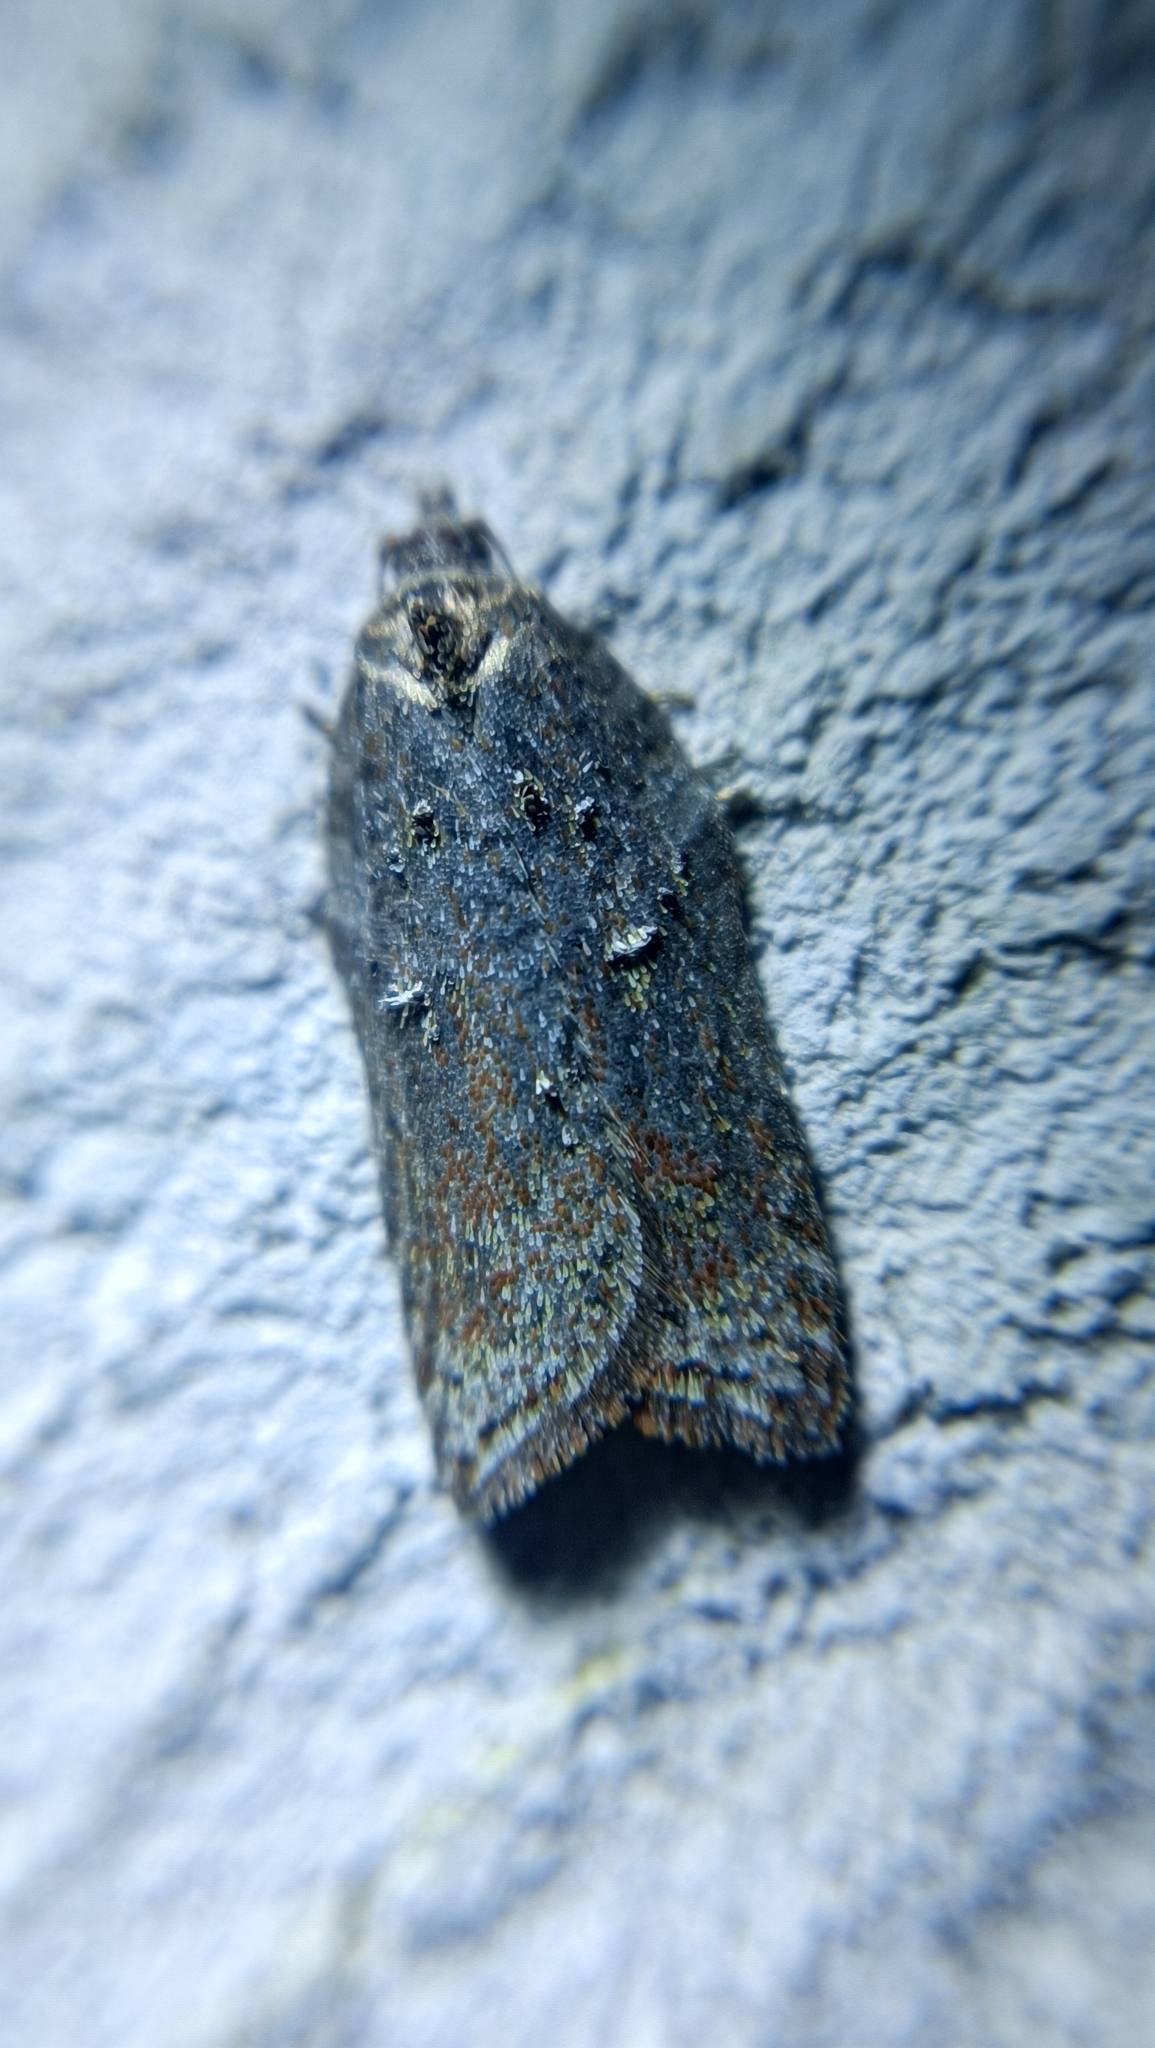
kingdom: Animalia
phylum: Arthropoda
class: Insecta
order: Lepidoptera
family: Tortricidae
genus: Acleris
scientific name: Acleris lipsiana
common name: Northern button
